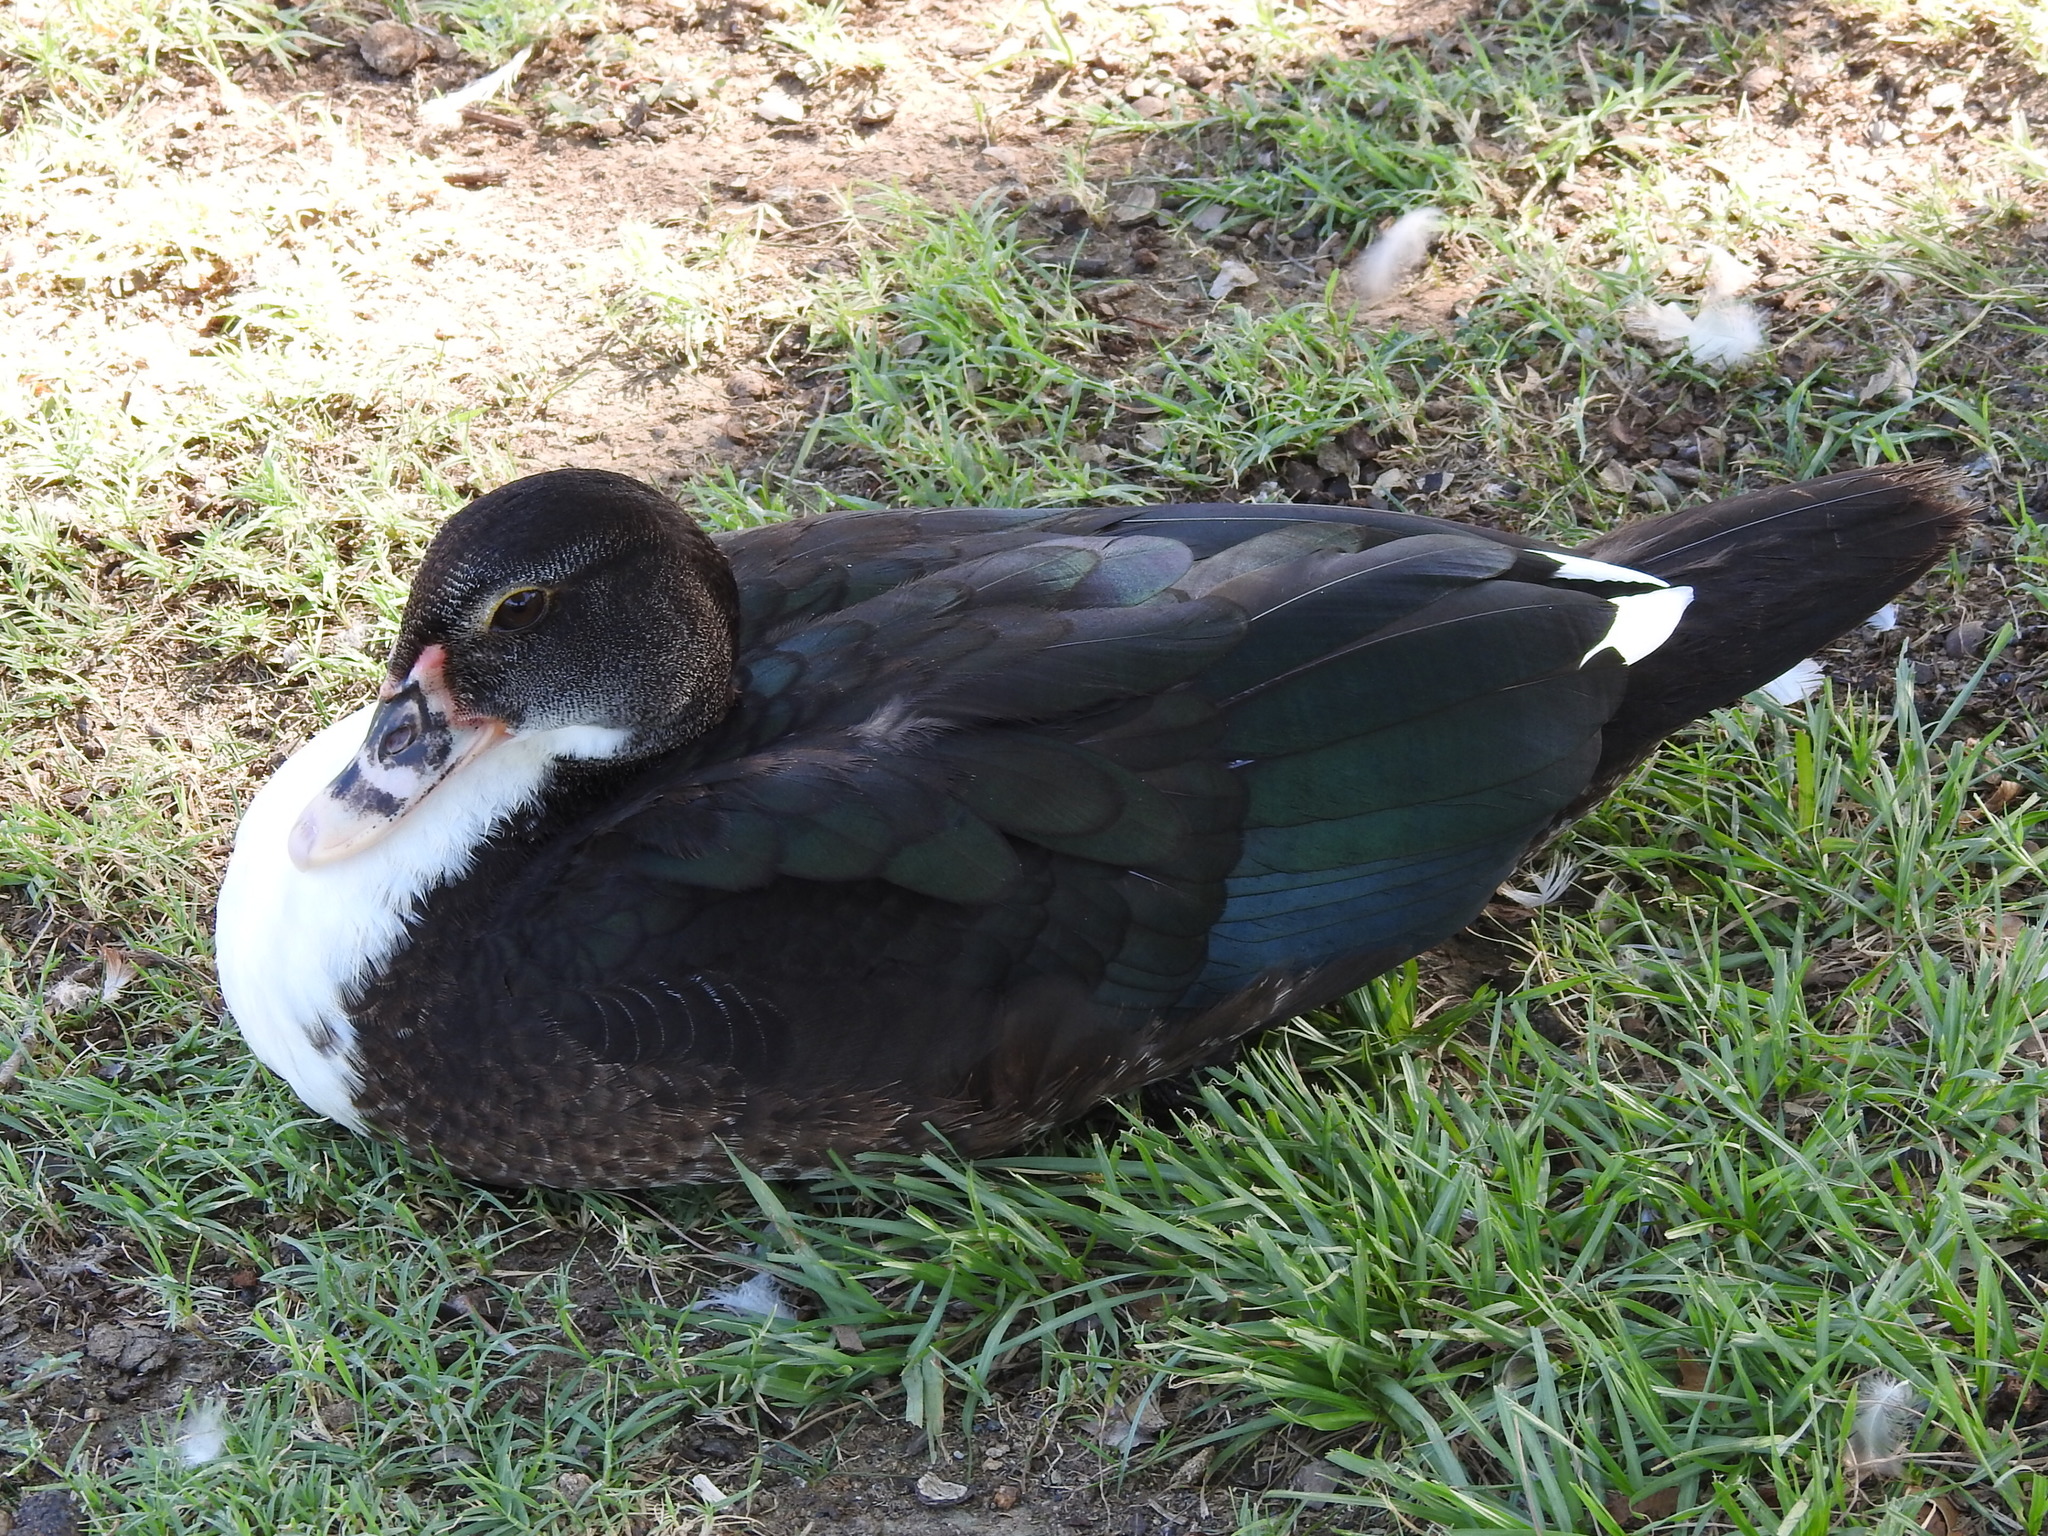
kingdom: Animalia
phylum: Chordata
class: Aves
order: Anseriformes
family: Anatidae
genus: Cairina
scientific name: Cairina moschata
